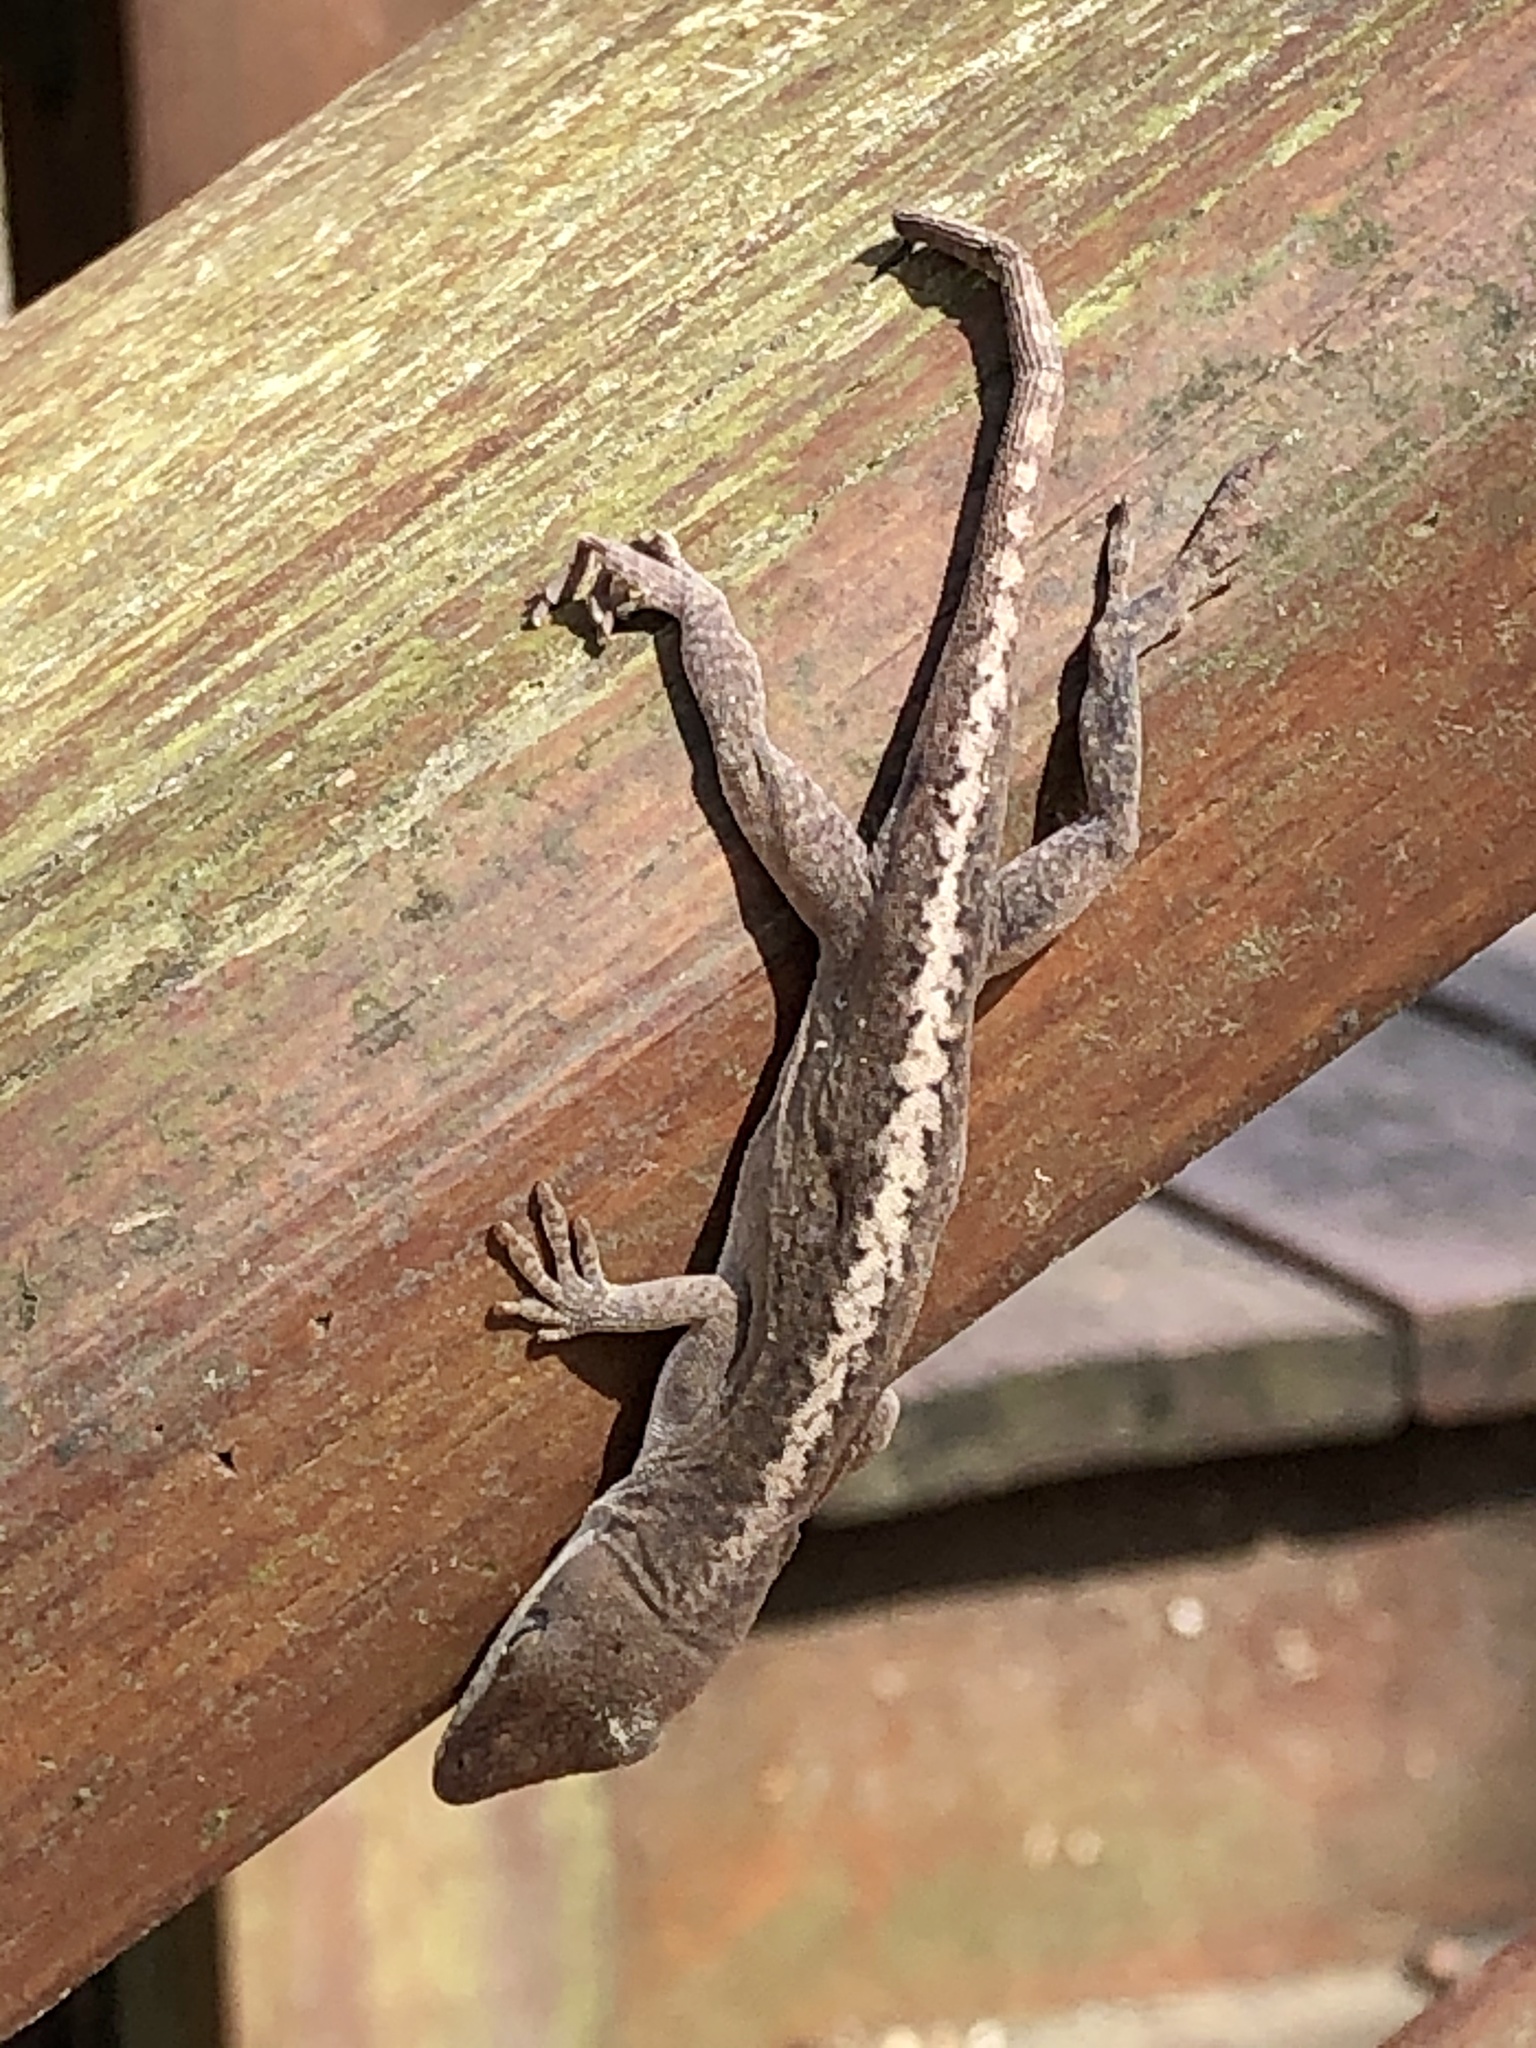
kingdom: Animalia
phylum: Chordata
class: Squamata
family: Dactyloidae
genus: Anolis
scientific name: Anolis carolinensis
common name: Green anole
